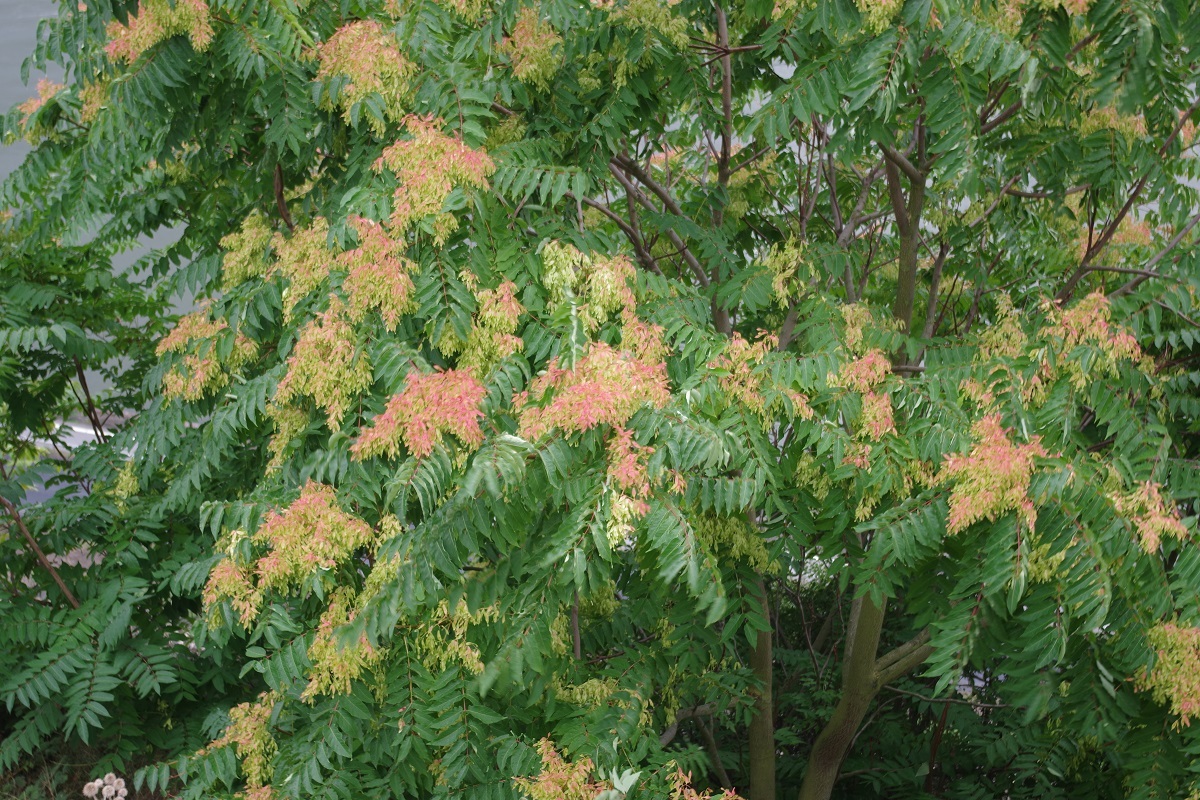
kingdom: Plantae
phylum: Tracheophyta
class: Magnoliopsida
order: Sapindales
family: Simaroubaceae
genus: Ailanthus
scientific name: Ailanthus altissima
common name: Tree-of-heaven
